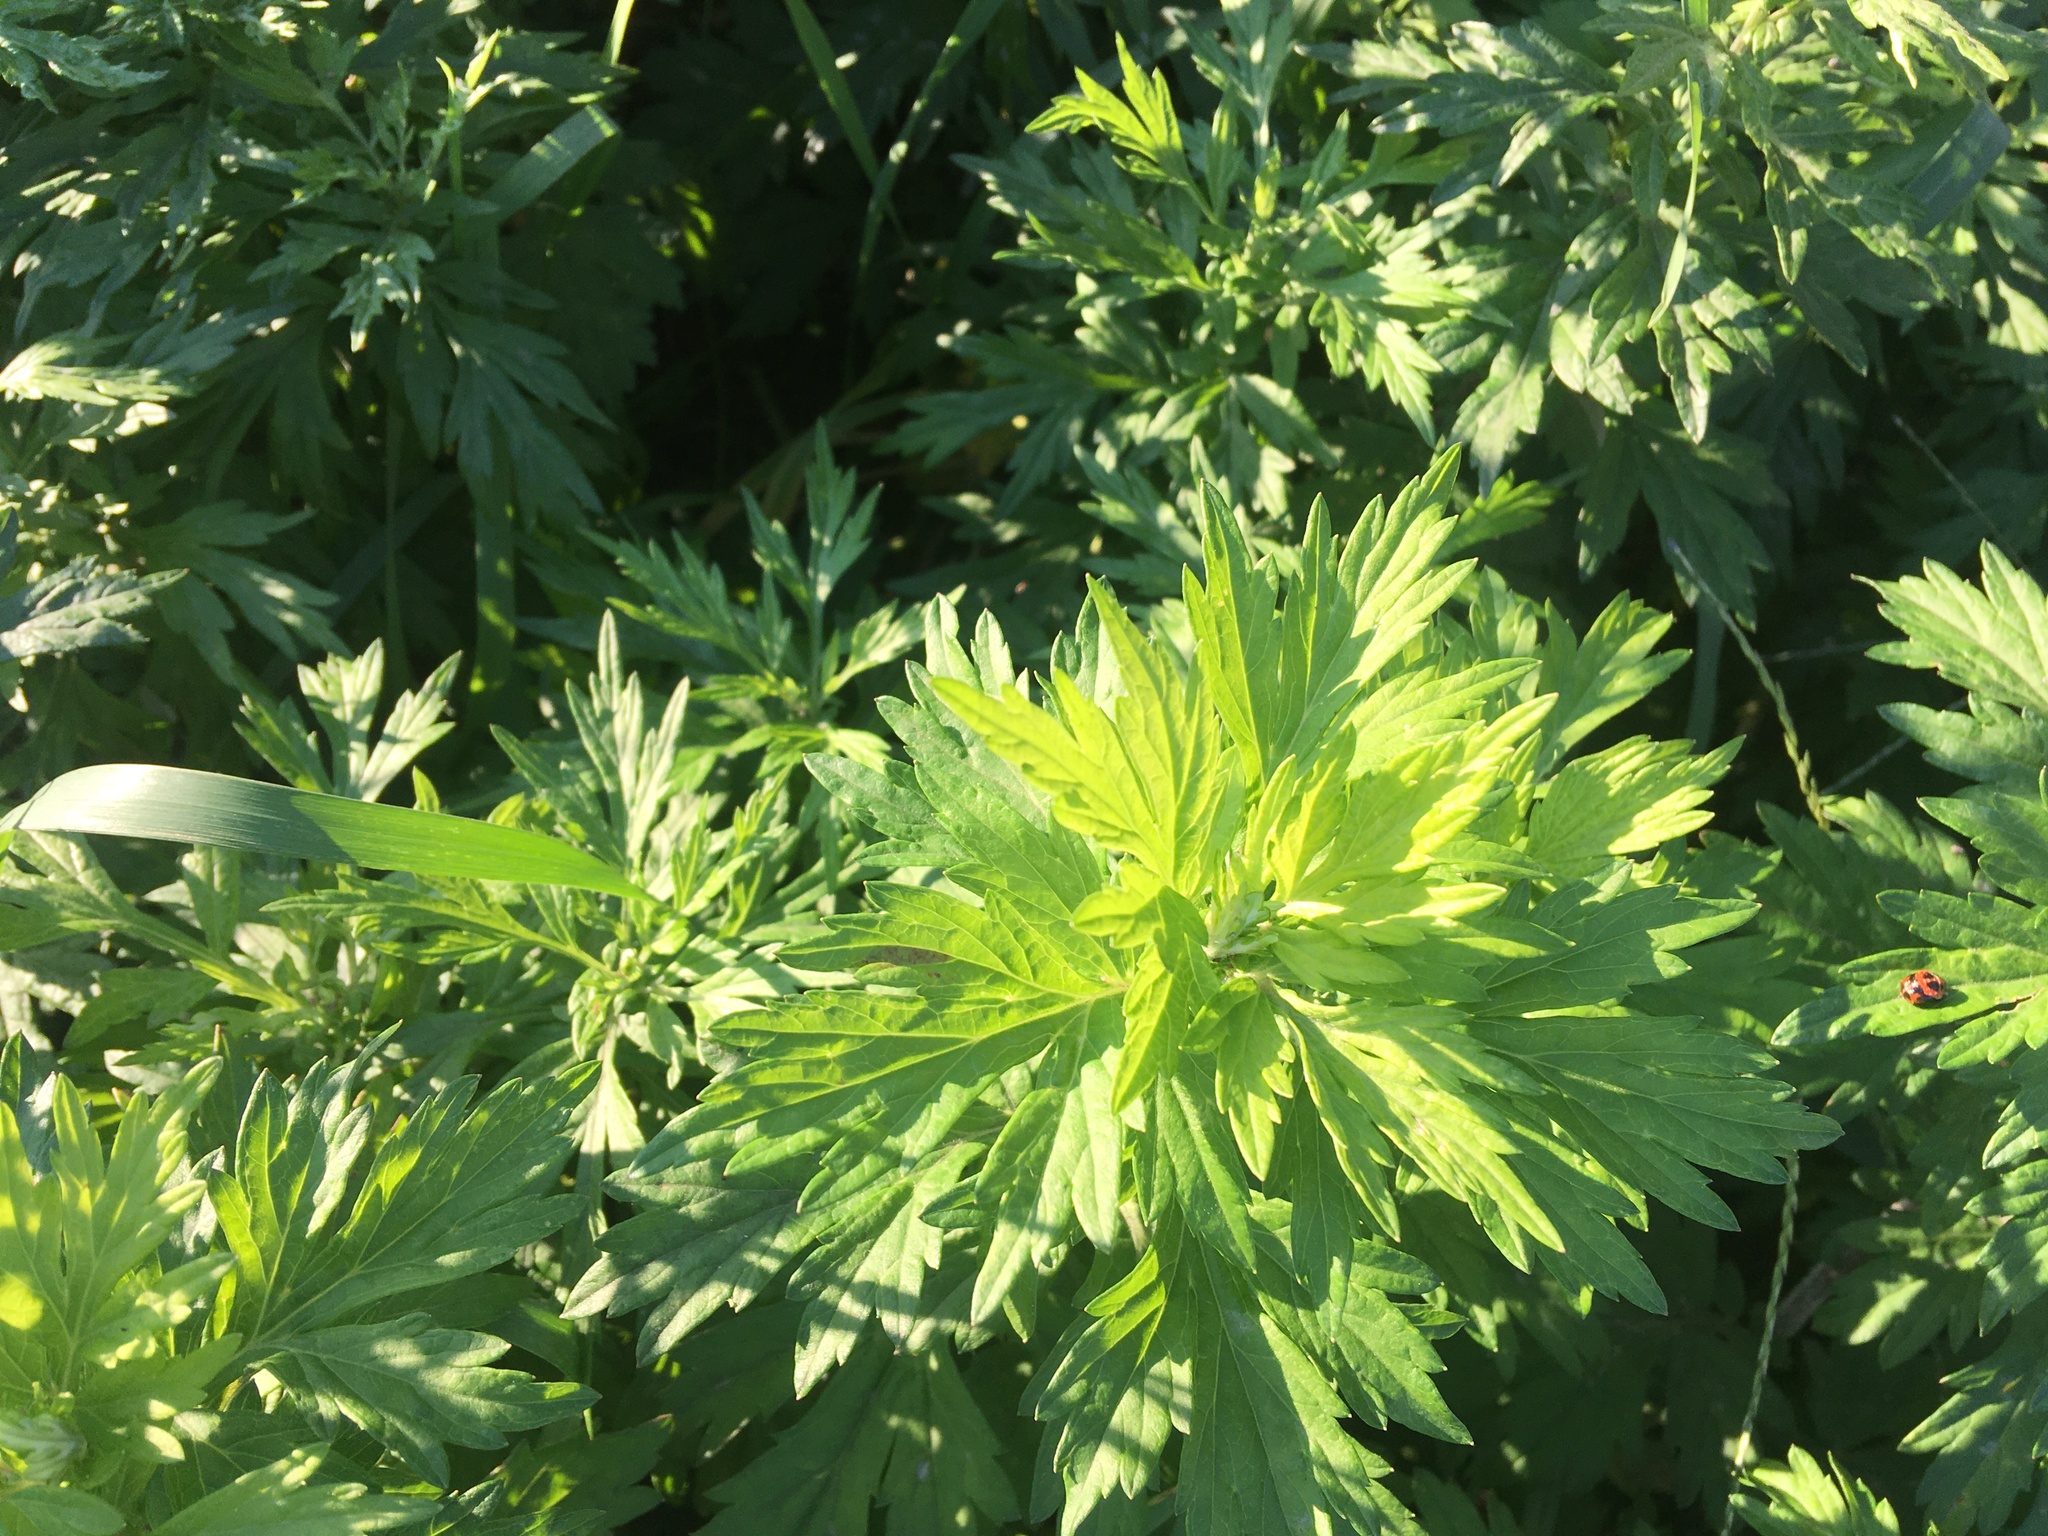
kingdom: Plantae
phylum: Tracheophyta
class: Magnoliopsida
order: Asterales
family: Asteraceae
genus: Artemisia
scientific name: Artemisia vulgaris
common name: Mugwort
